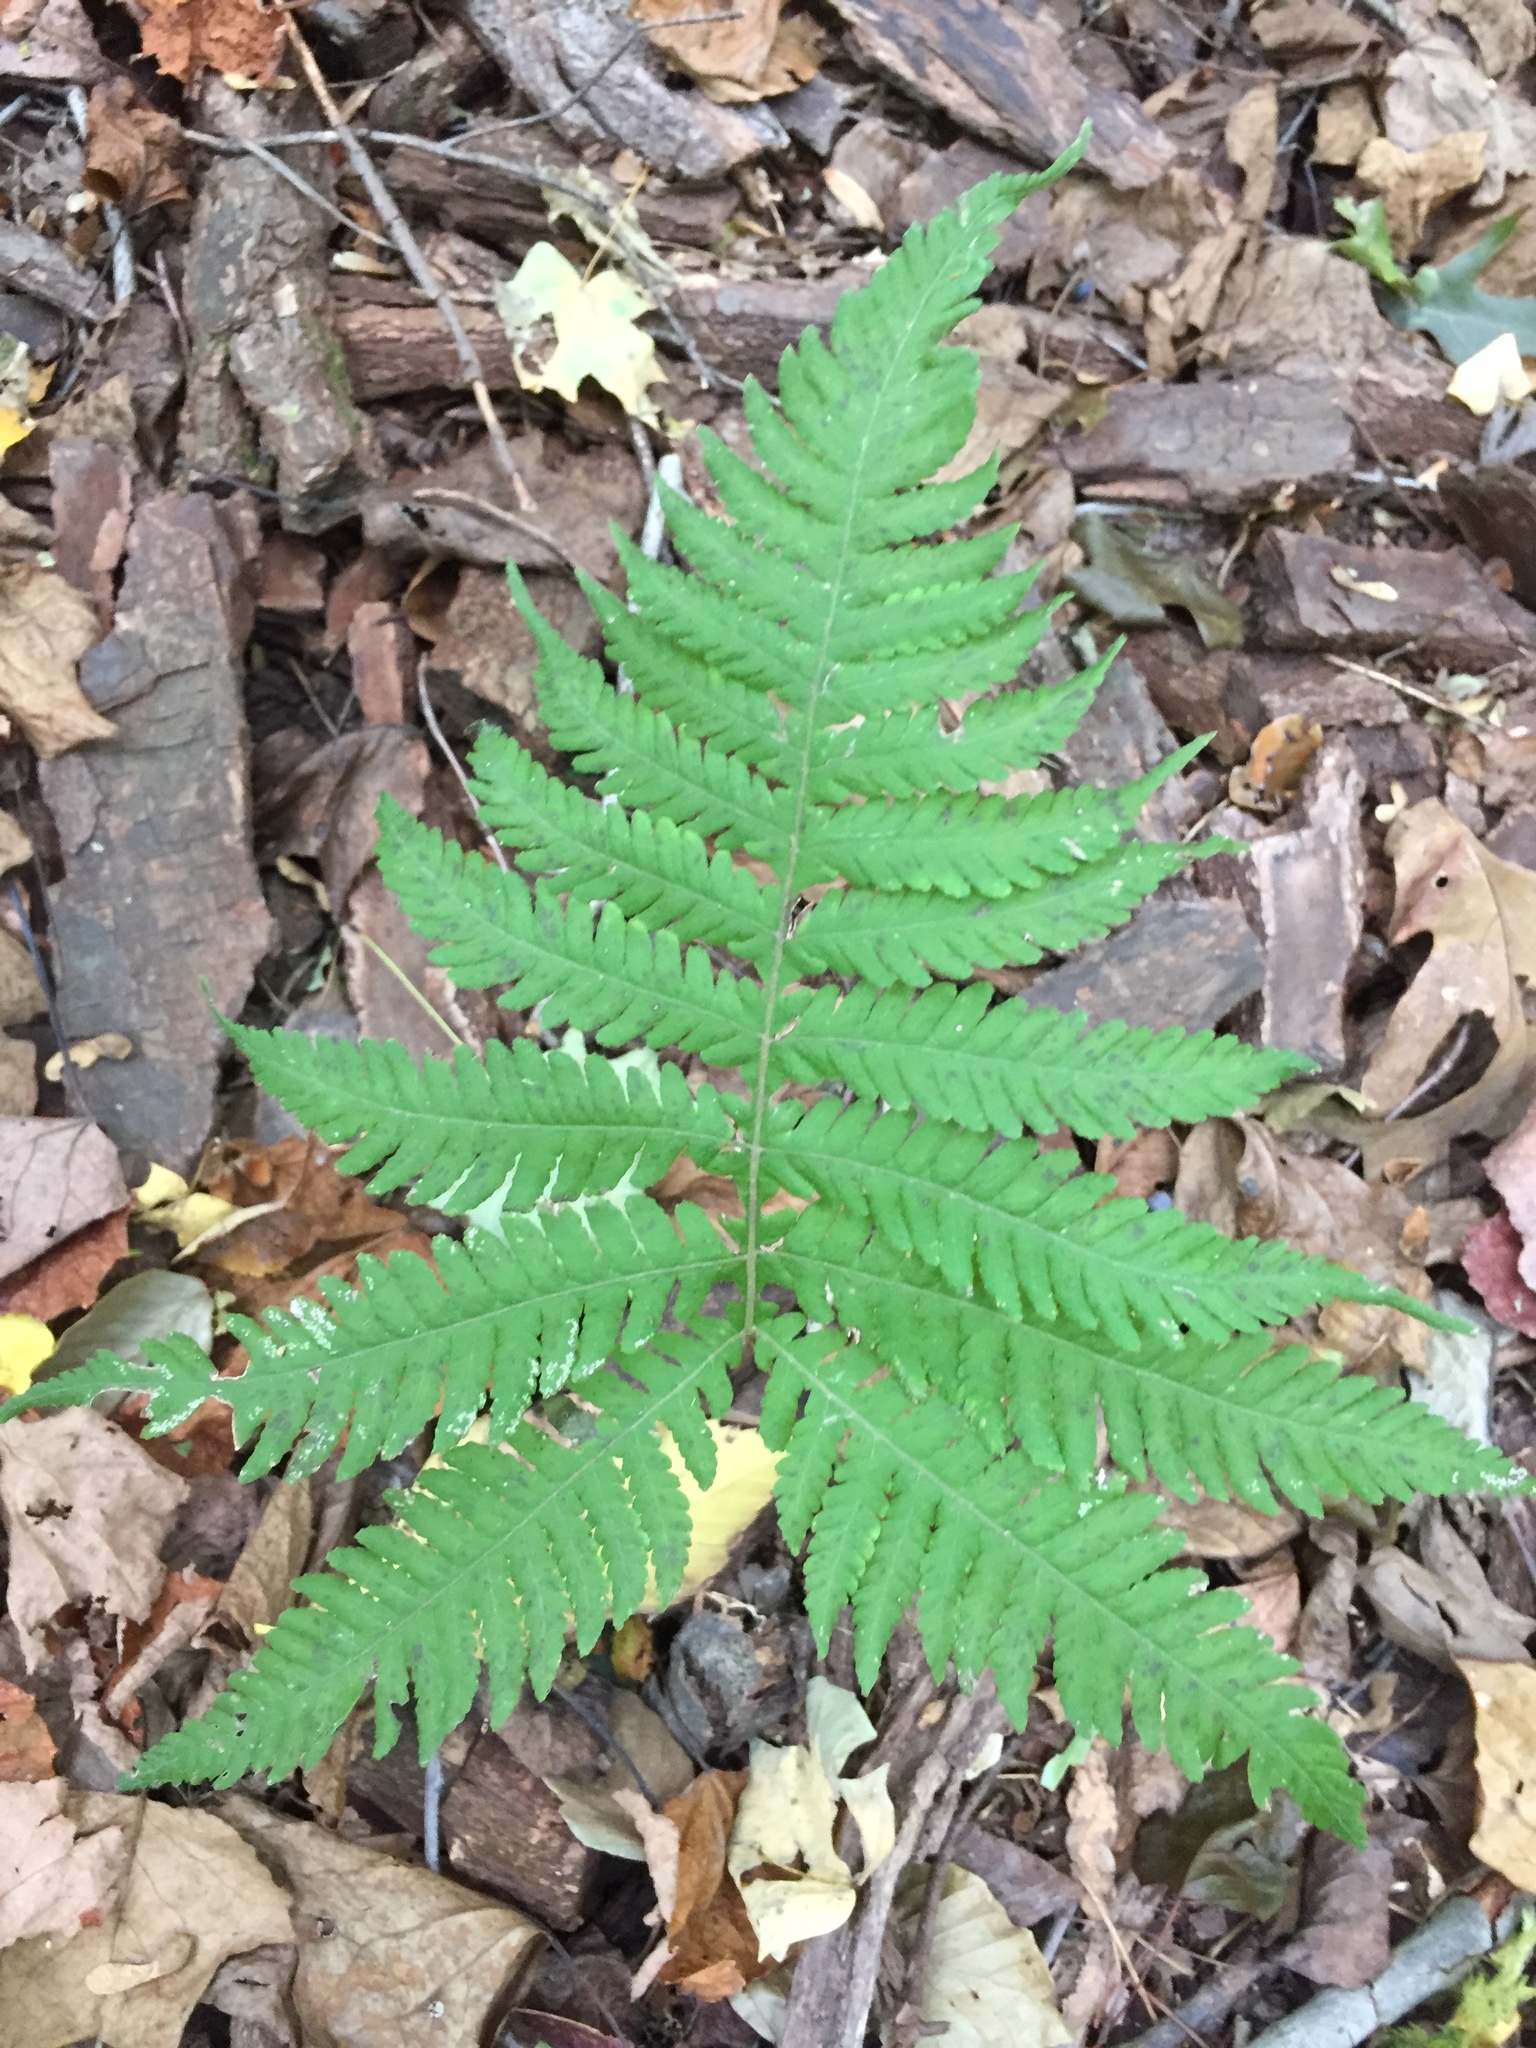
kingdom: Plantae
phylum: Tracheophyta
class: Polypodiopsida
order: Polypodiales
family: Thelypteridaceae
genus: Phegopteris
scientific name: Phegopteris hexagonoptera
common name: Broad beech fern
